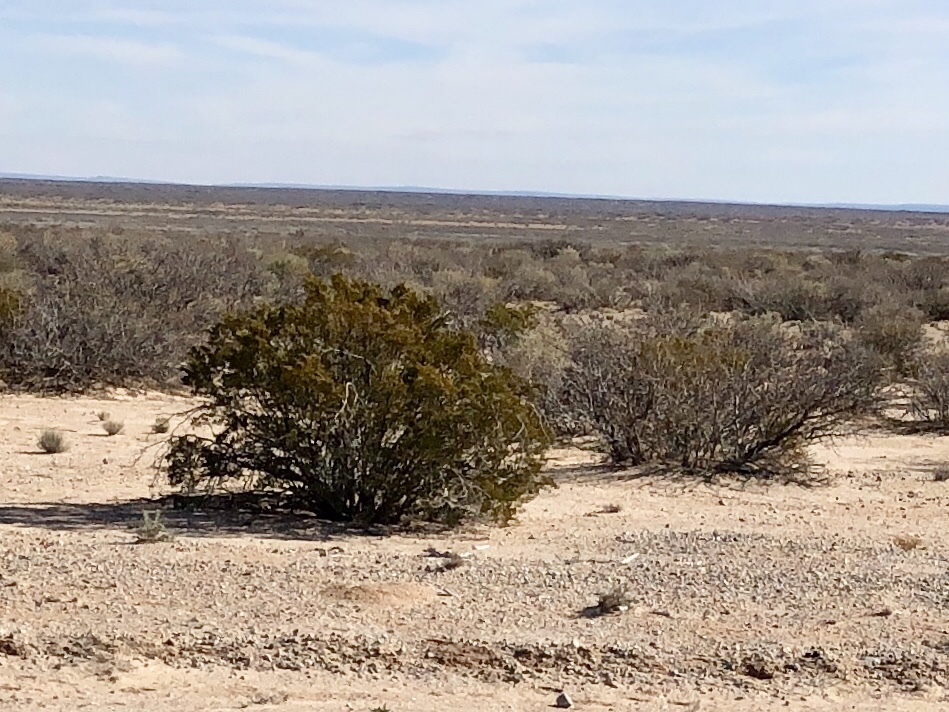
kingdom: Plantae
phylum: Tracheophyta
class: Magnoliopsida
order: Zygophyllales
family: Zygophyllaceae
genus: Larrea
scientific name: Larrea tridentata
